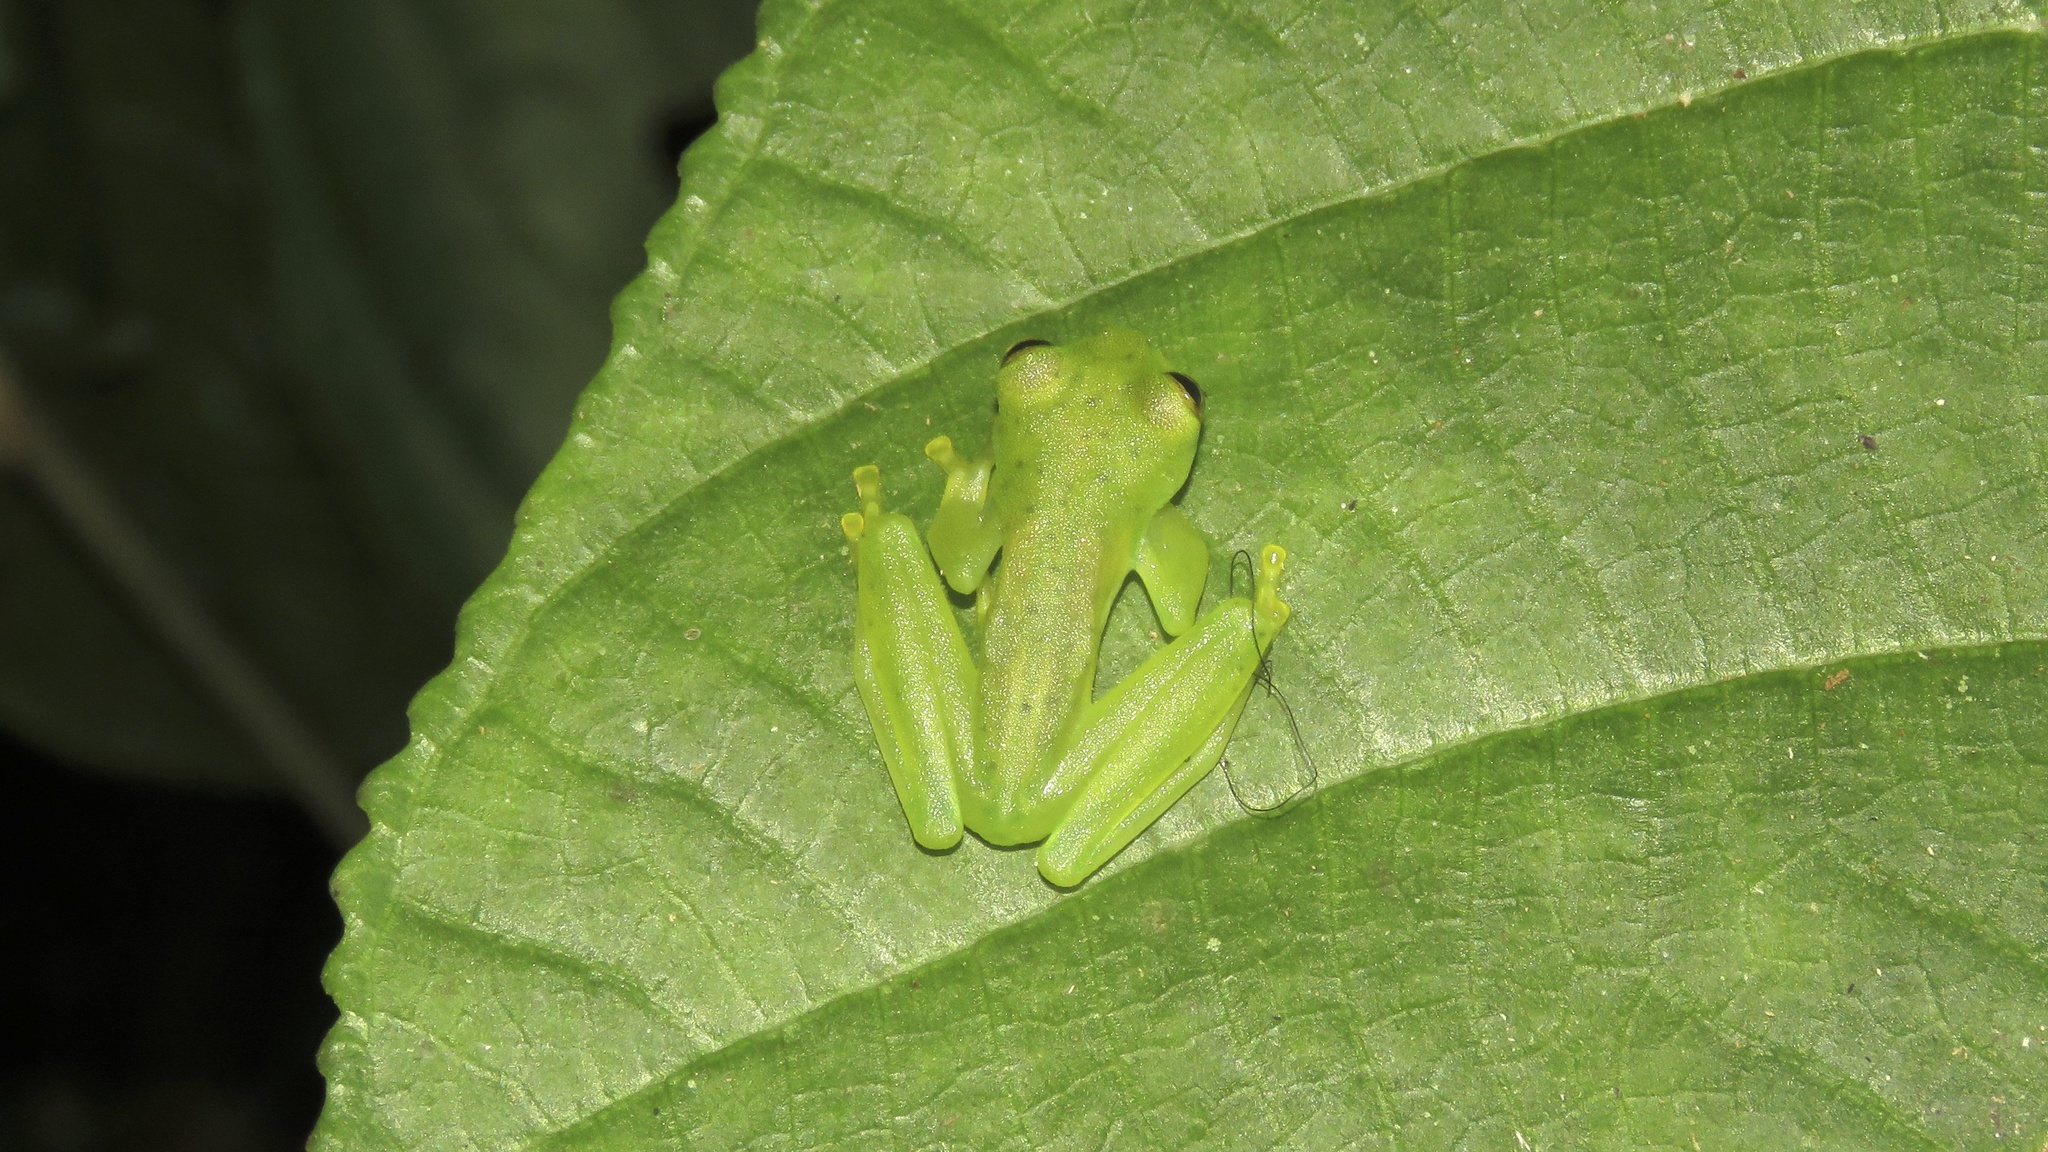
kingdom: Animalia
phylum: Chordata
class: Amphibia
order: Anura
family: Centrolenidae
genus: Espadarana
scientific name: Espadarana prosoblepon
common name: Rana de cristal variable
